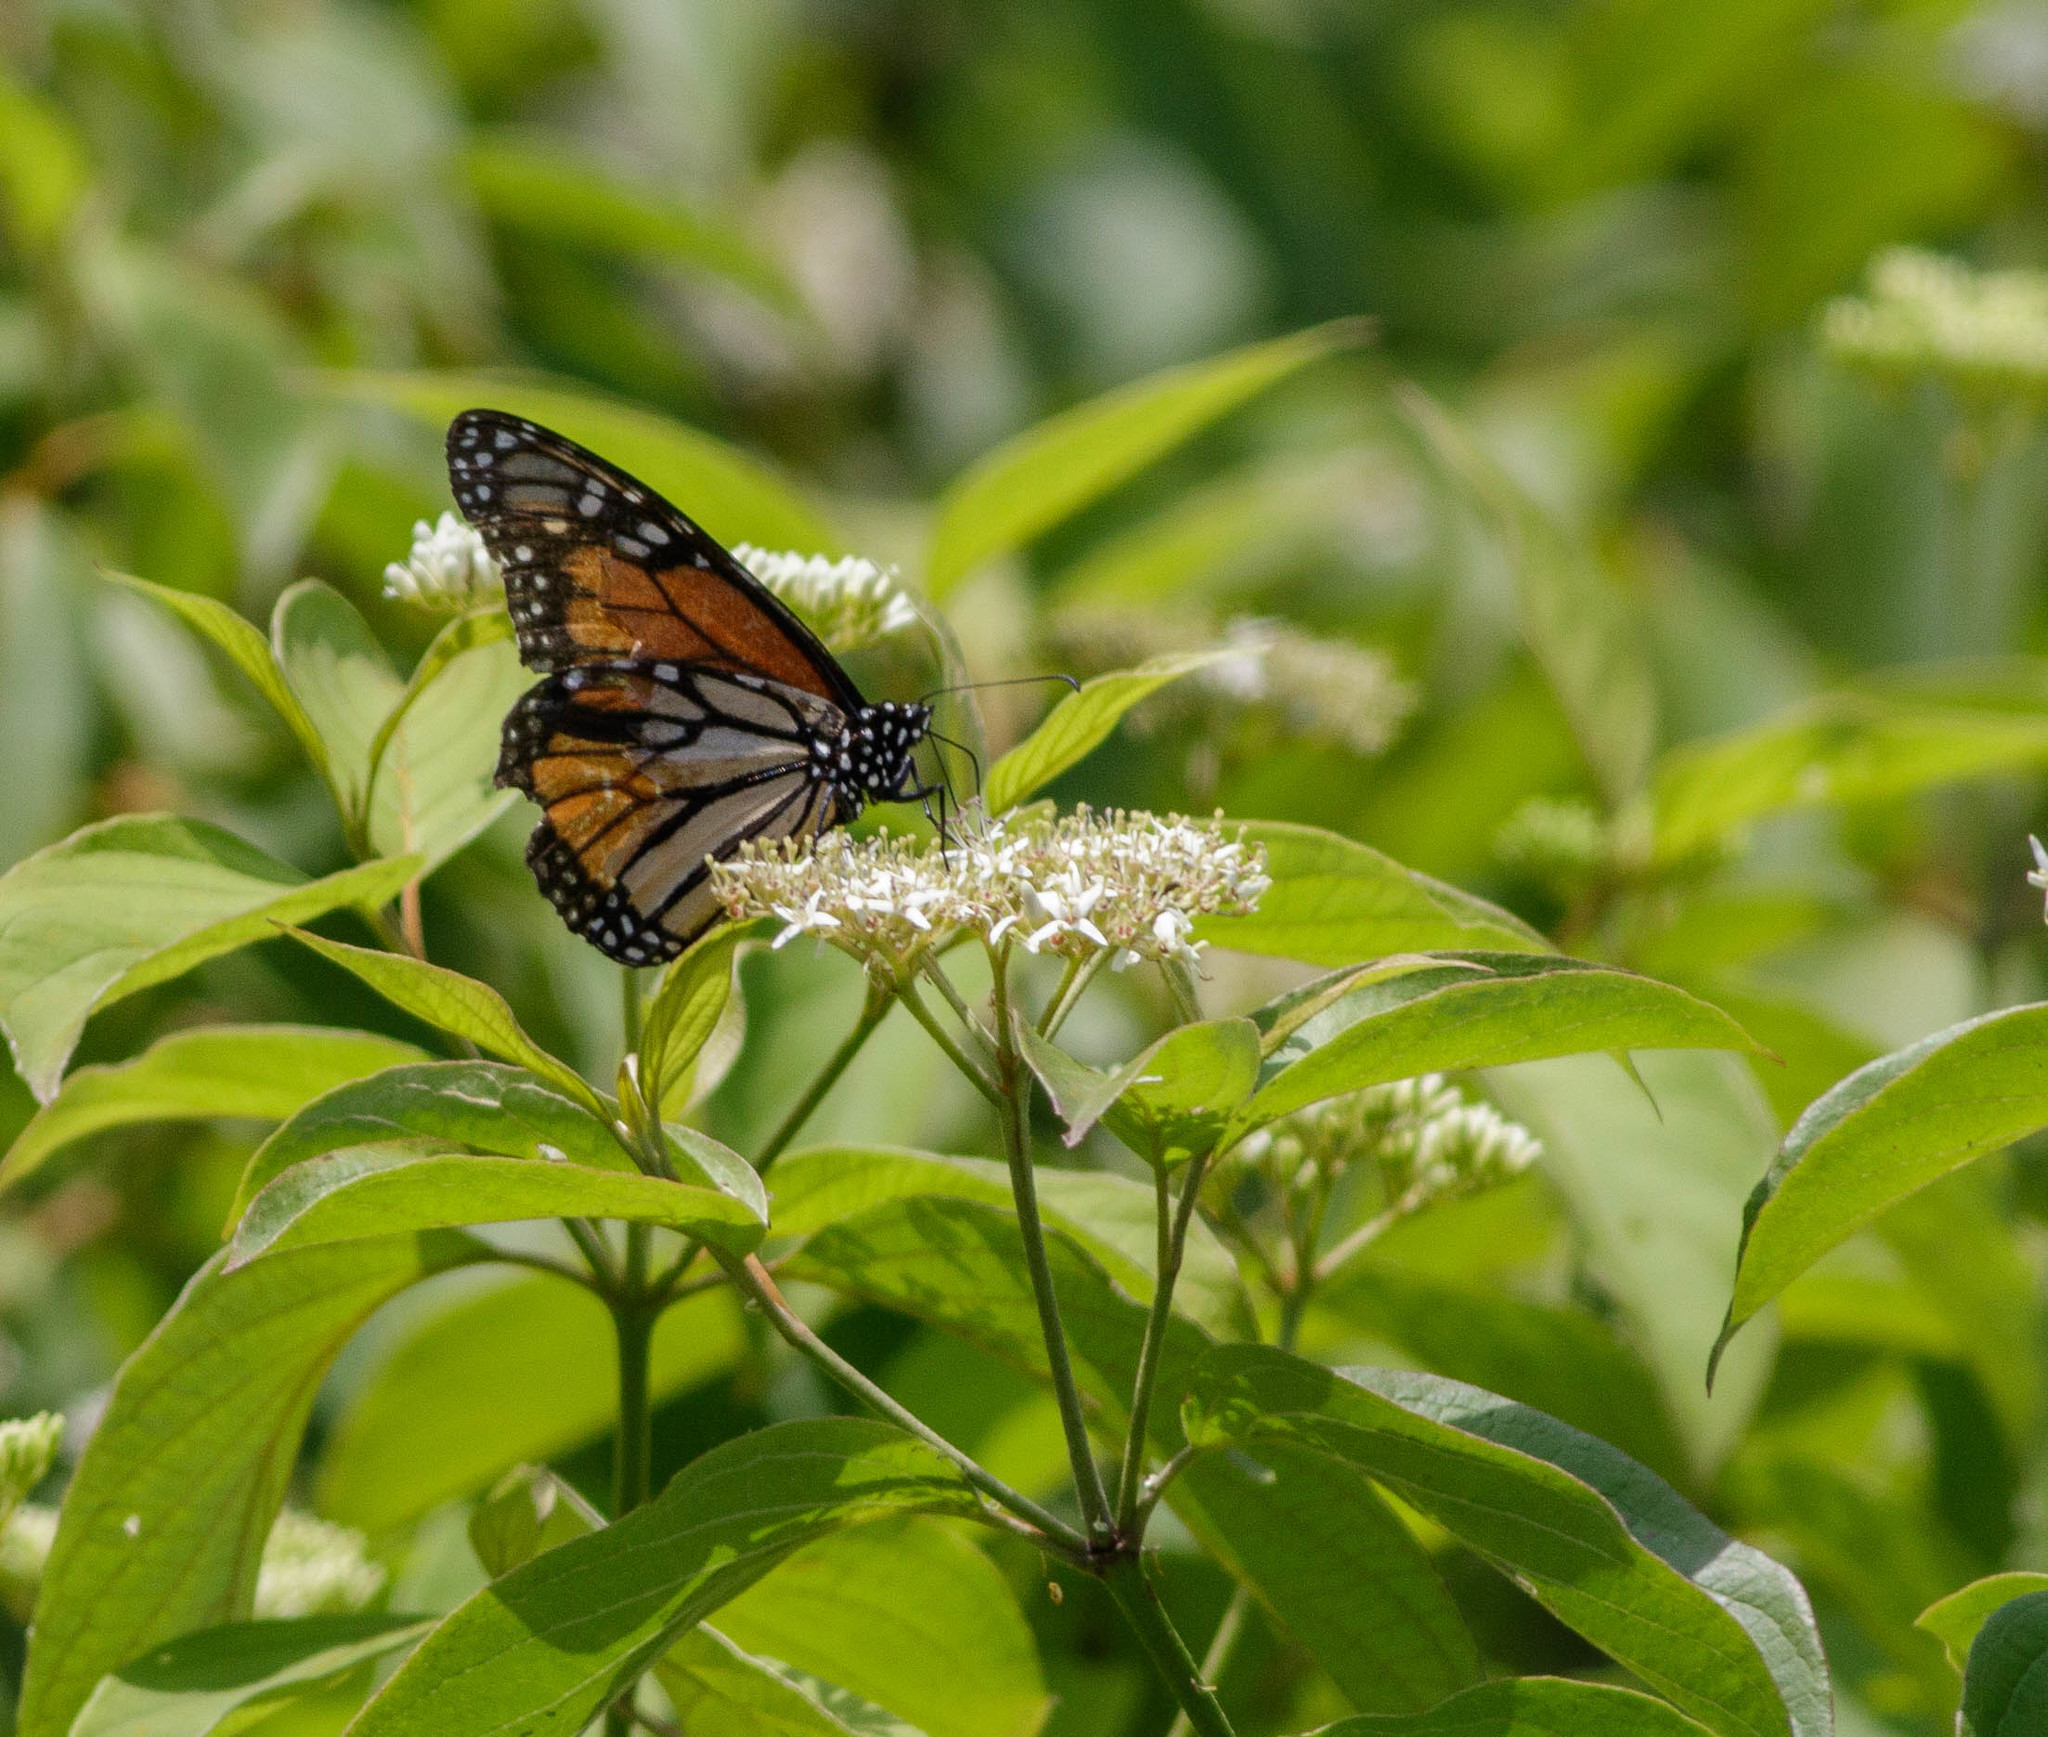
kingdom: Animalia
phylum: Arthropoda
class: Insecta
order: Lepidoptera
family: Nymphalidae
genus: Danaus
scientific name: Danaus plexippus
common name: Monarch
